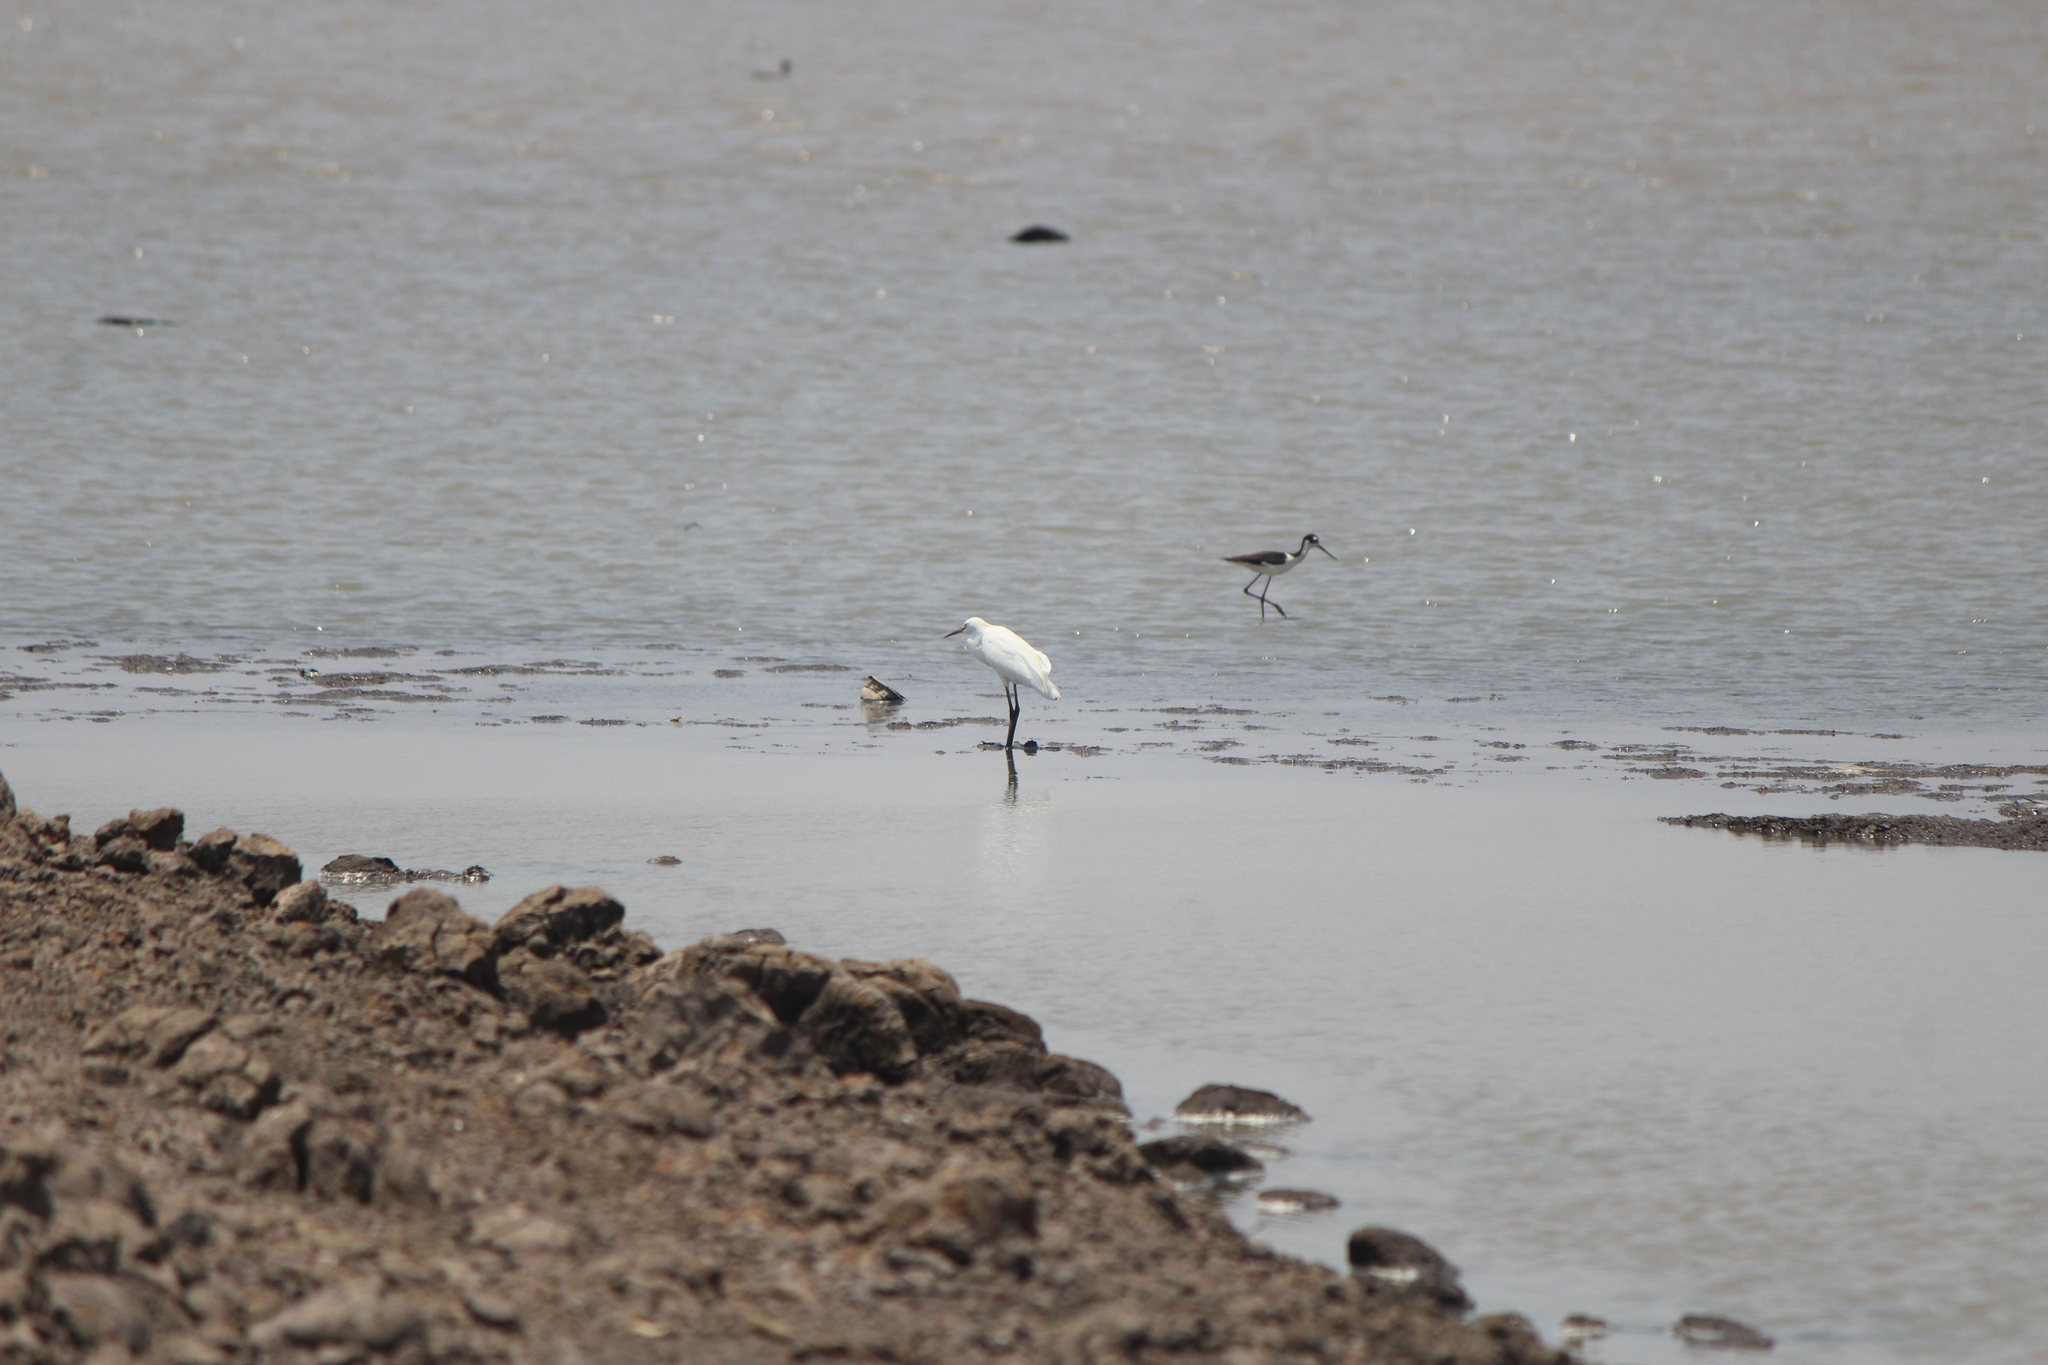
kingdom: Animalia
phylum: Chordata
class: Aves
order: Charadriiformes
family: Recurvirostridae
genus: Himantopus
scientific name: Himantopus mexicanus
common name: Black-necked stilt
